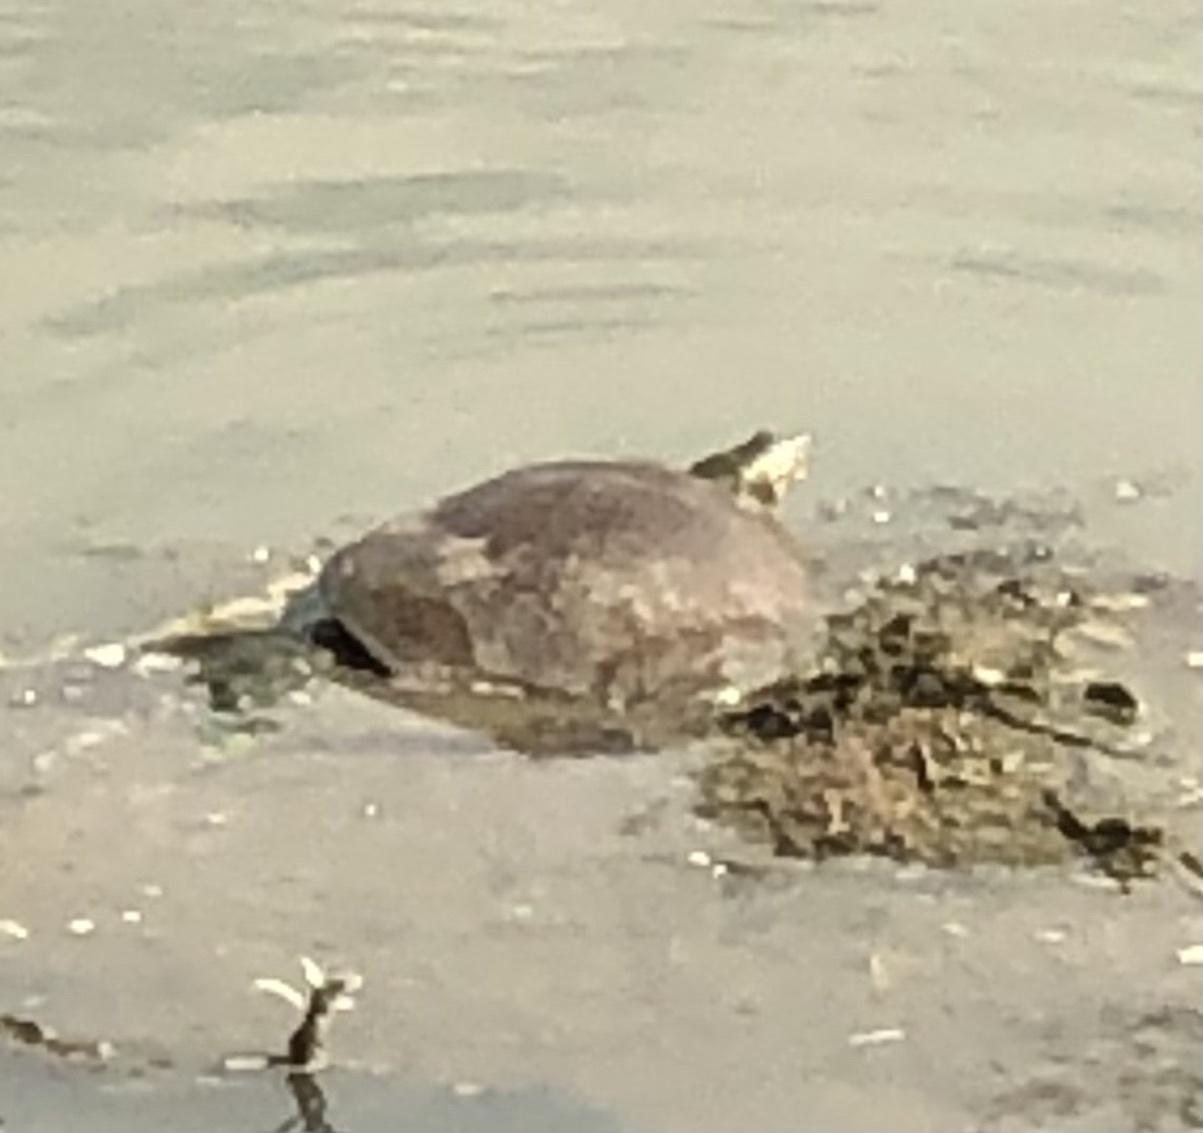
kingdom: Animalia
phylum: Chordata
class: Testudines
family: Trionychidae
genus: Apalone
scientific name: Apalone spinifera
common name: Spiny softshell turtle
